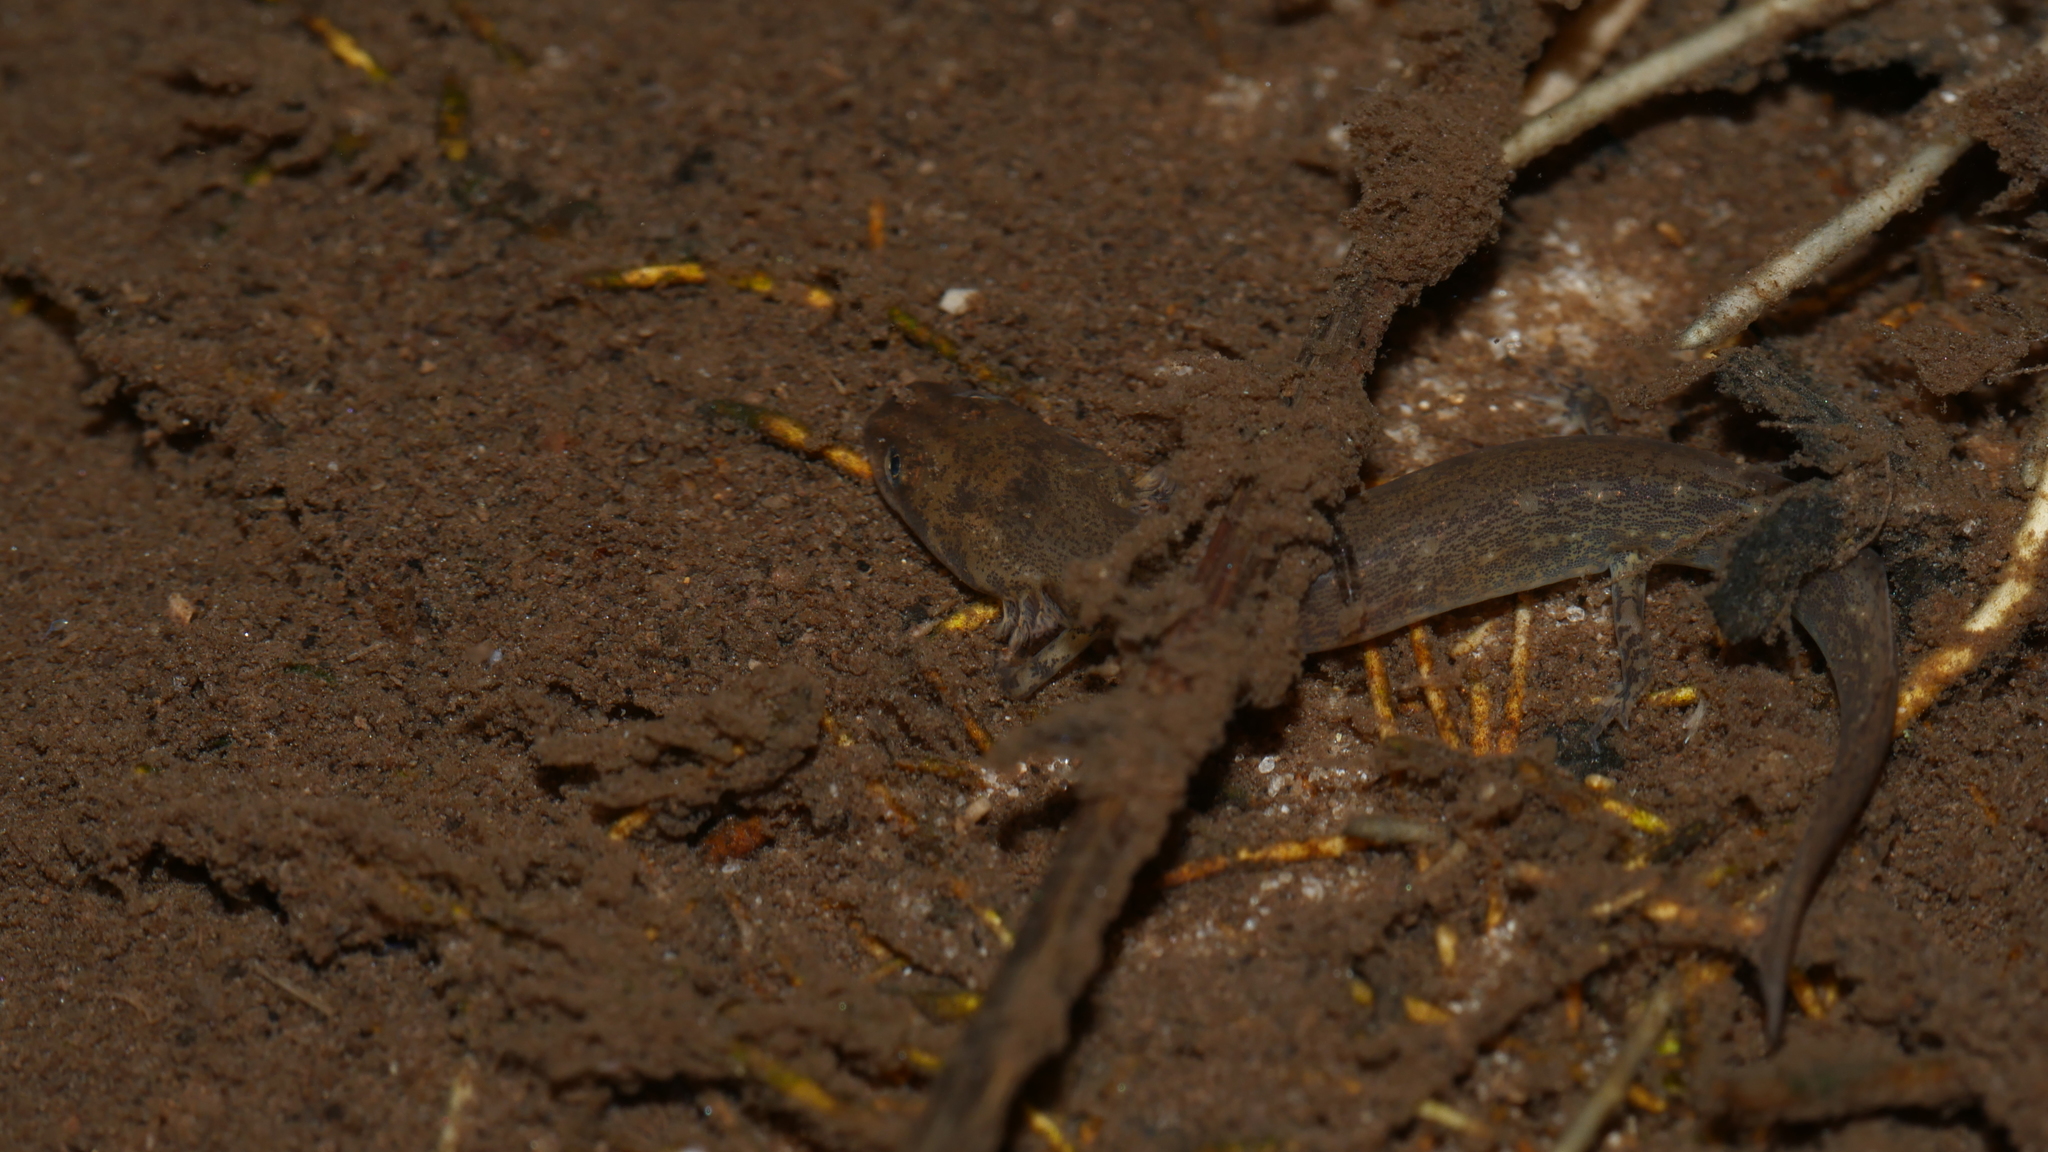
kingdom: Animalia
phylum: Chordata
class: Amphibia
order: Caudata
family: Plethodontidae
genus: Eurycea
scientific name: Eurycea cirrigera
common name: Southern two-lined salamander
